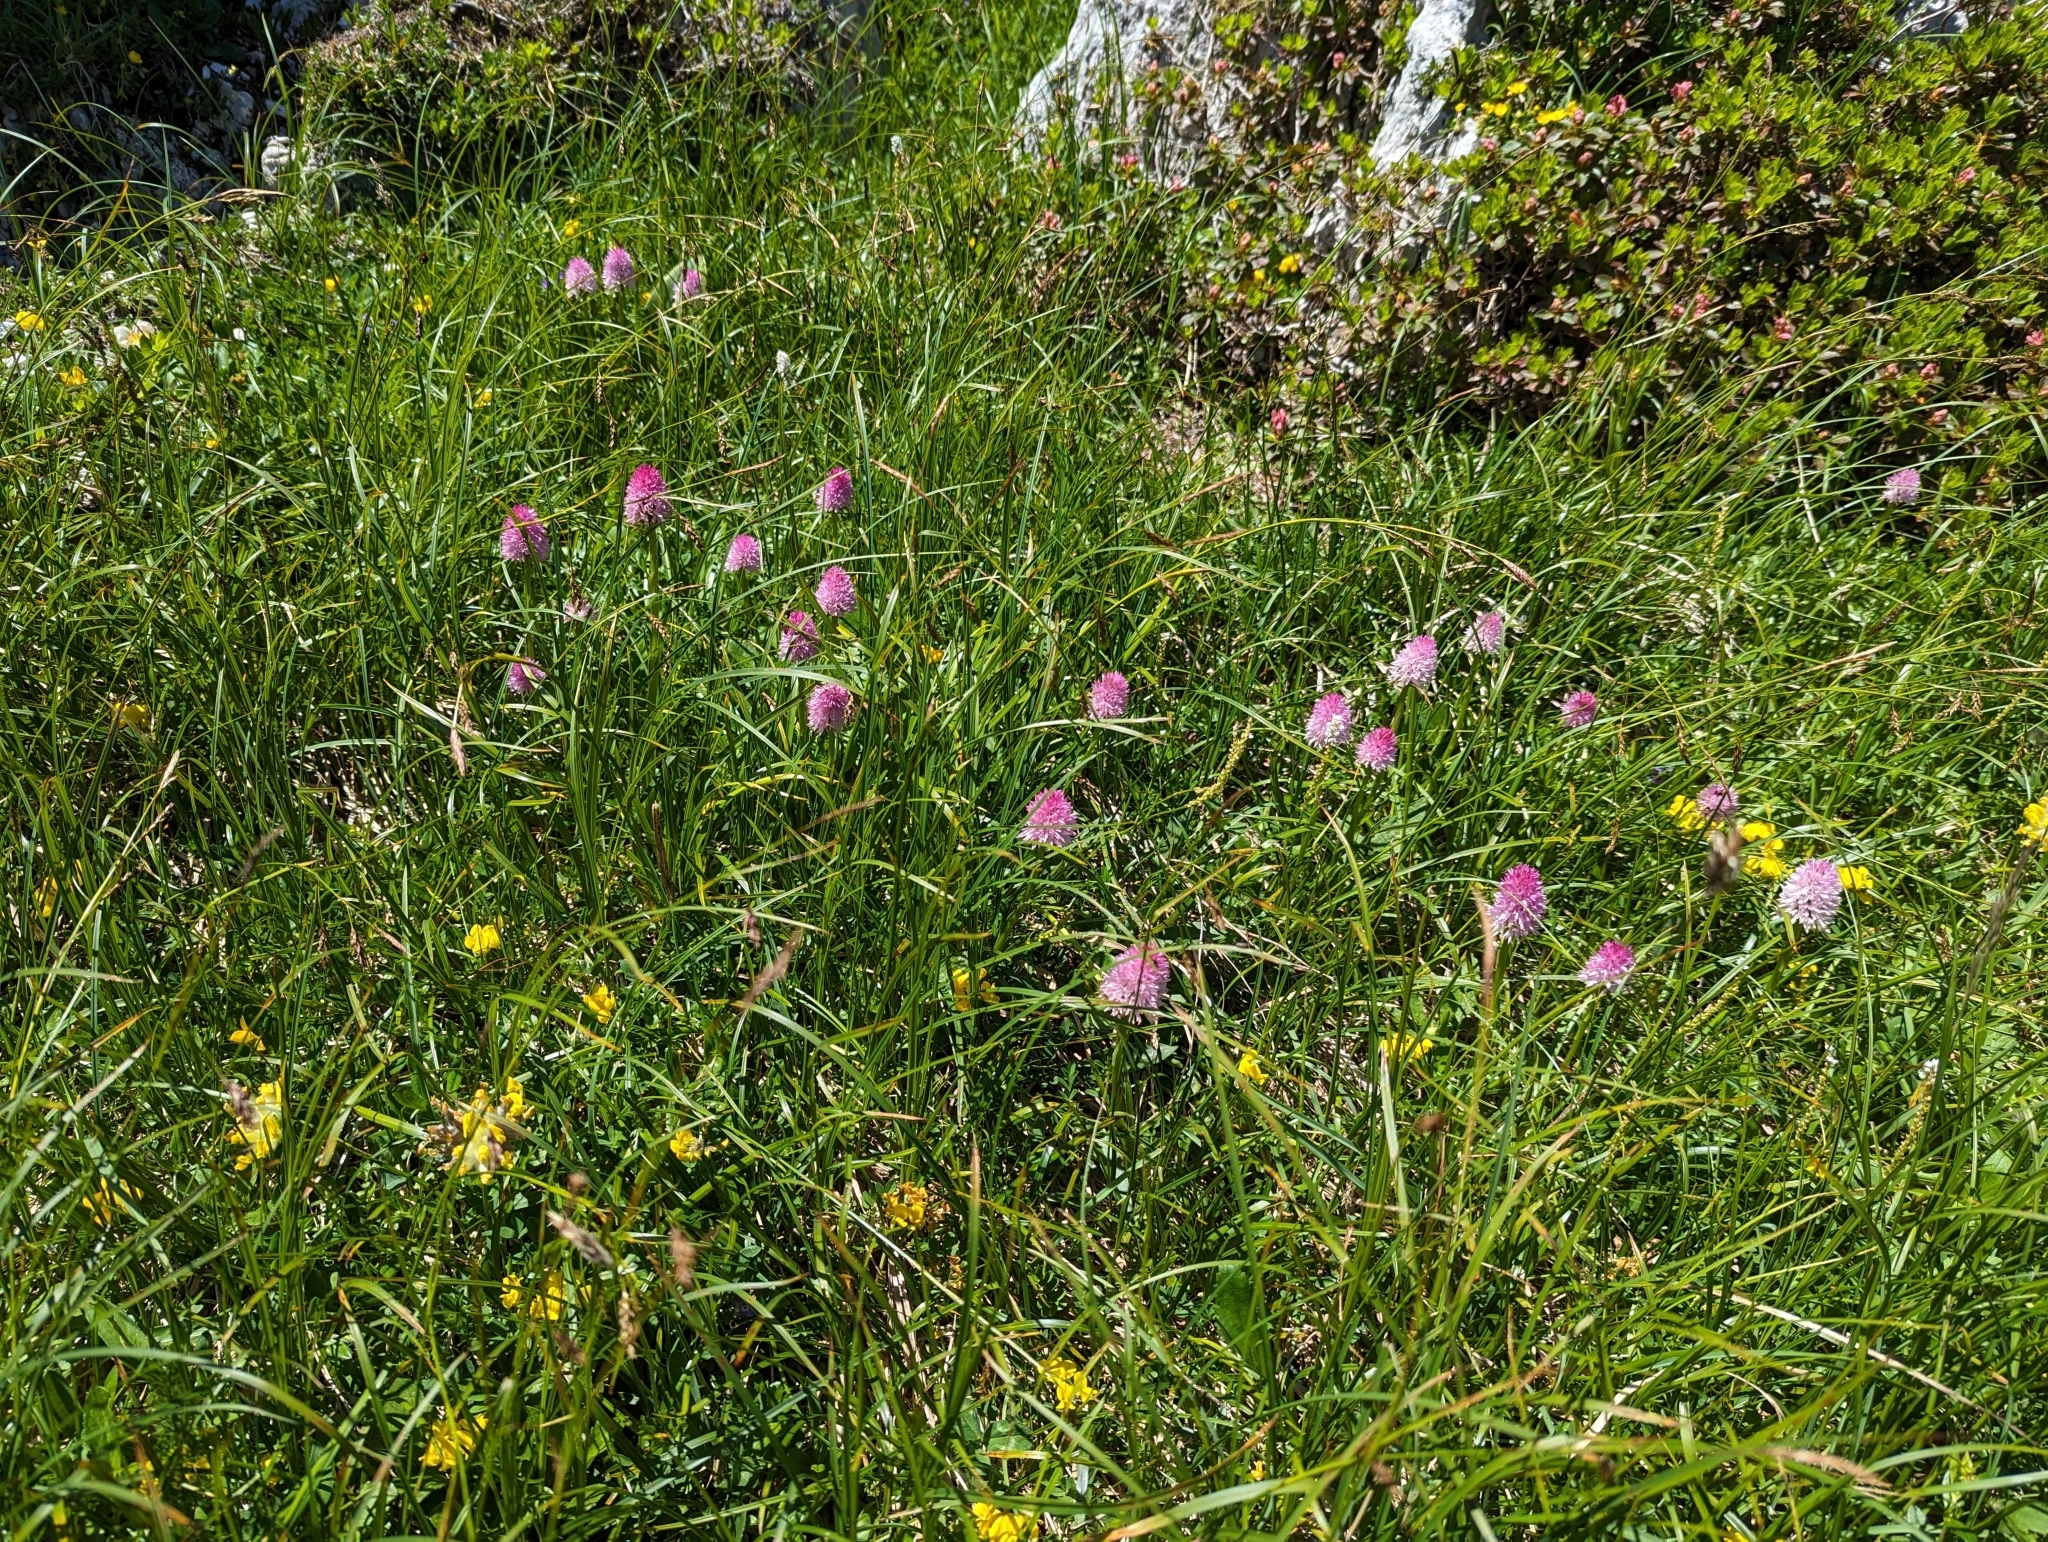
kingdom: Plantae
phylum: Tracheophyta
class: Liliopsida
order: Asparagales
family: Orchidaceae
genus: Gymnadenia
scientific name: Gymnadenia lithopolitanica
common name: Austrian gymnadenia
